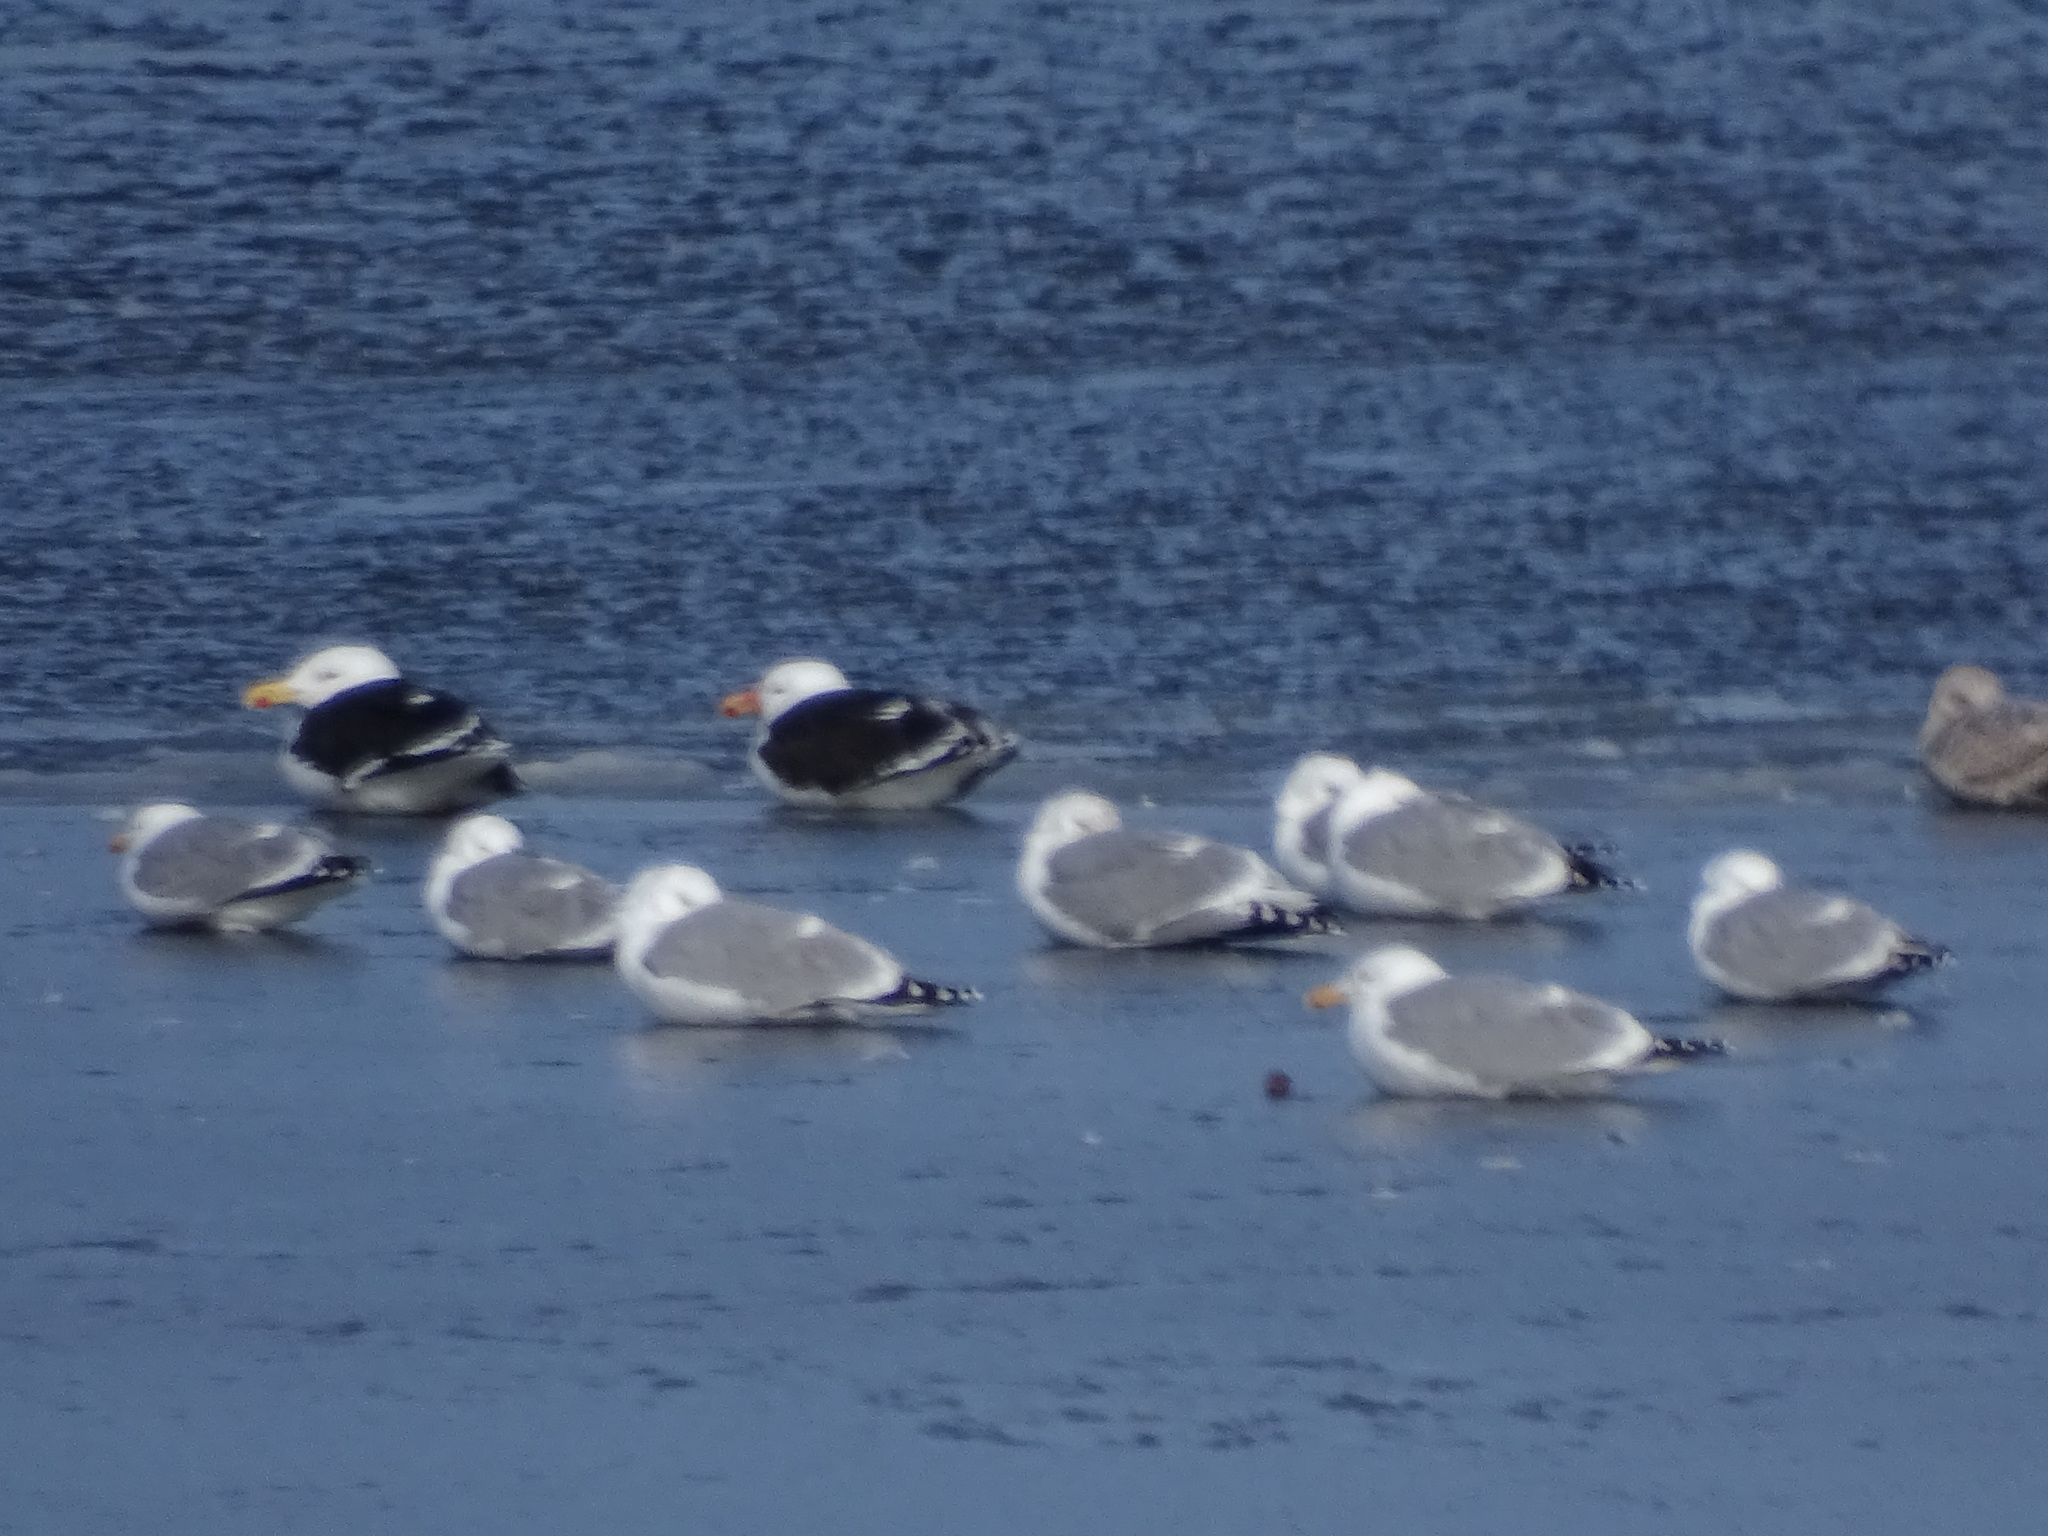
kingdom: Animalia
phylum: Chordata
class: Aves
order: Charadriiformes
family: Laridae
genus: Larus
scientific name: Larus argentatus
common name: Herring gull
